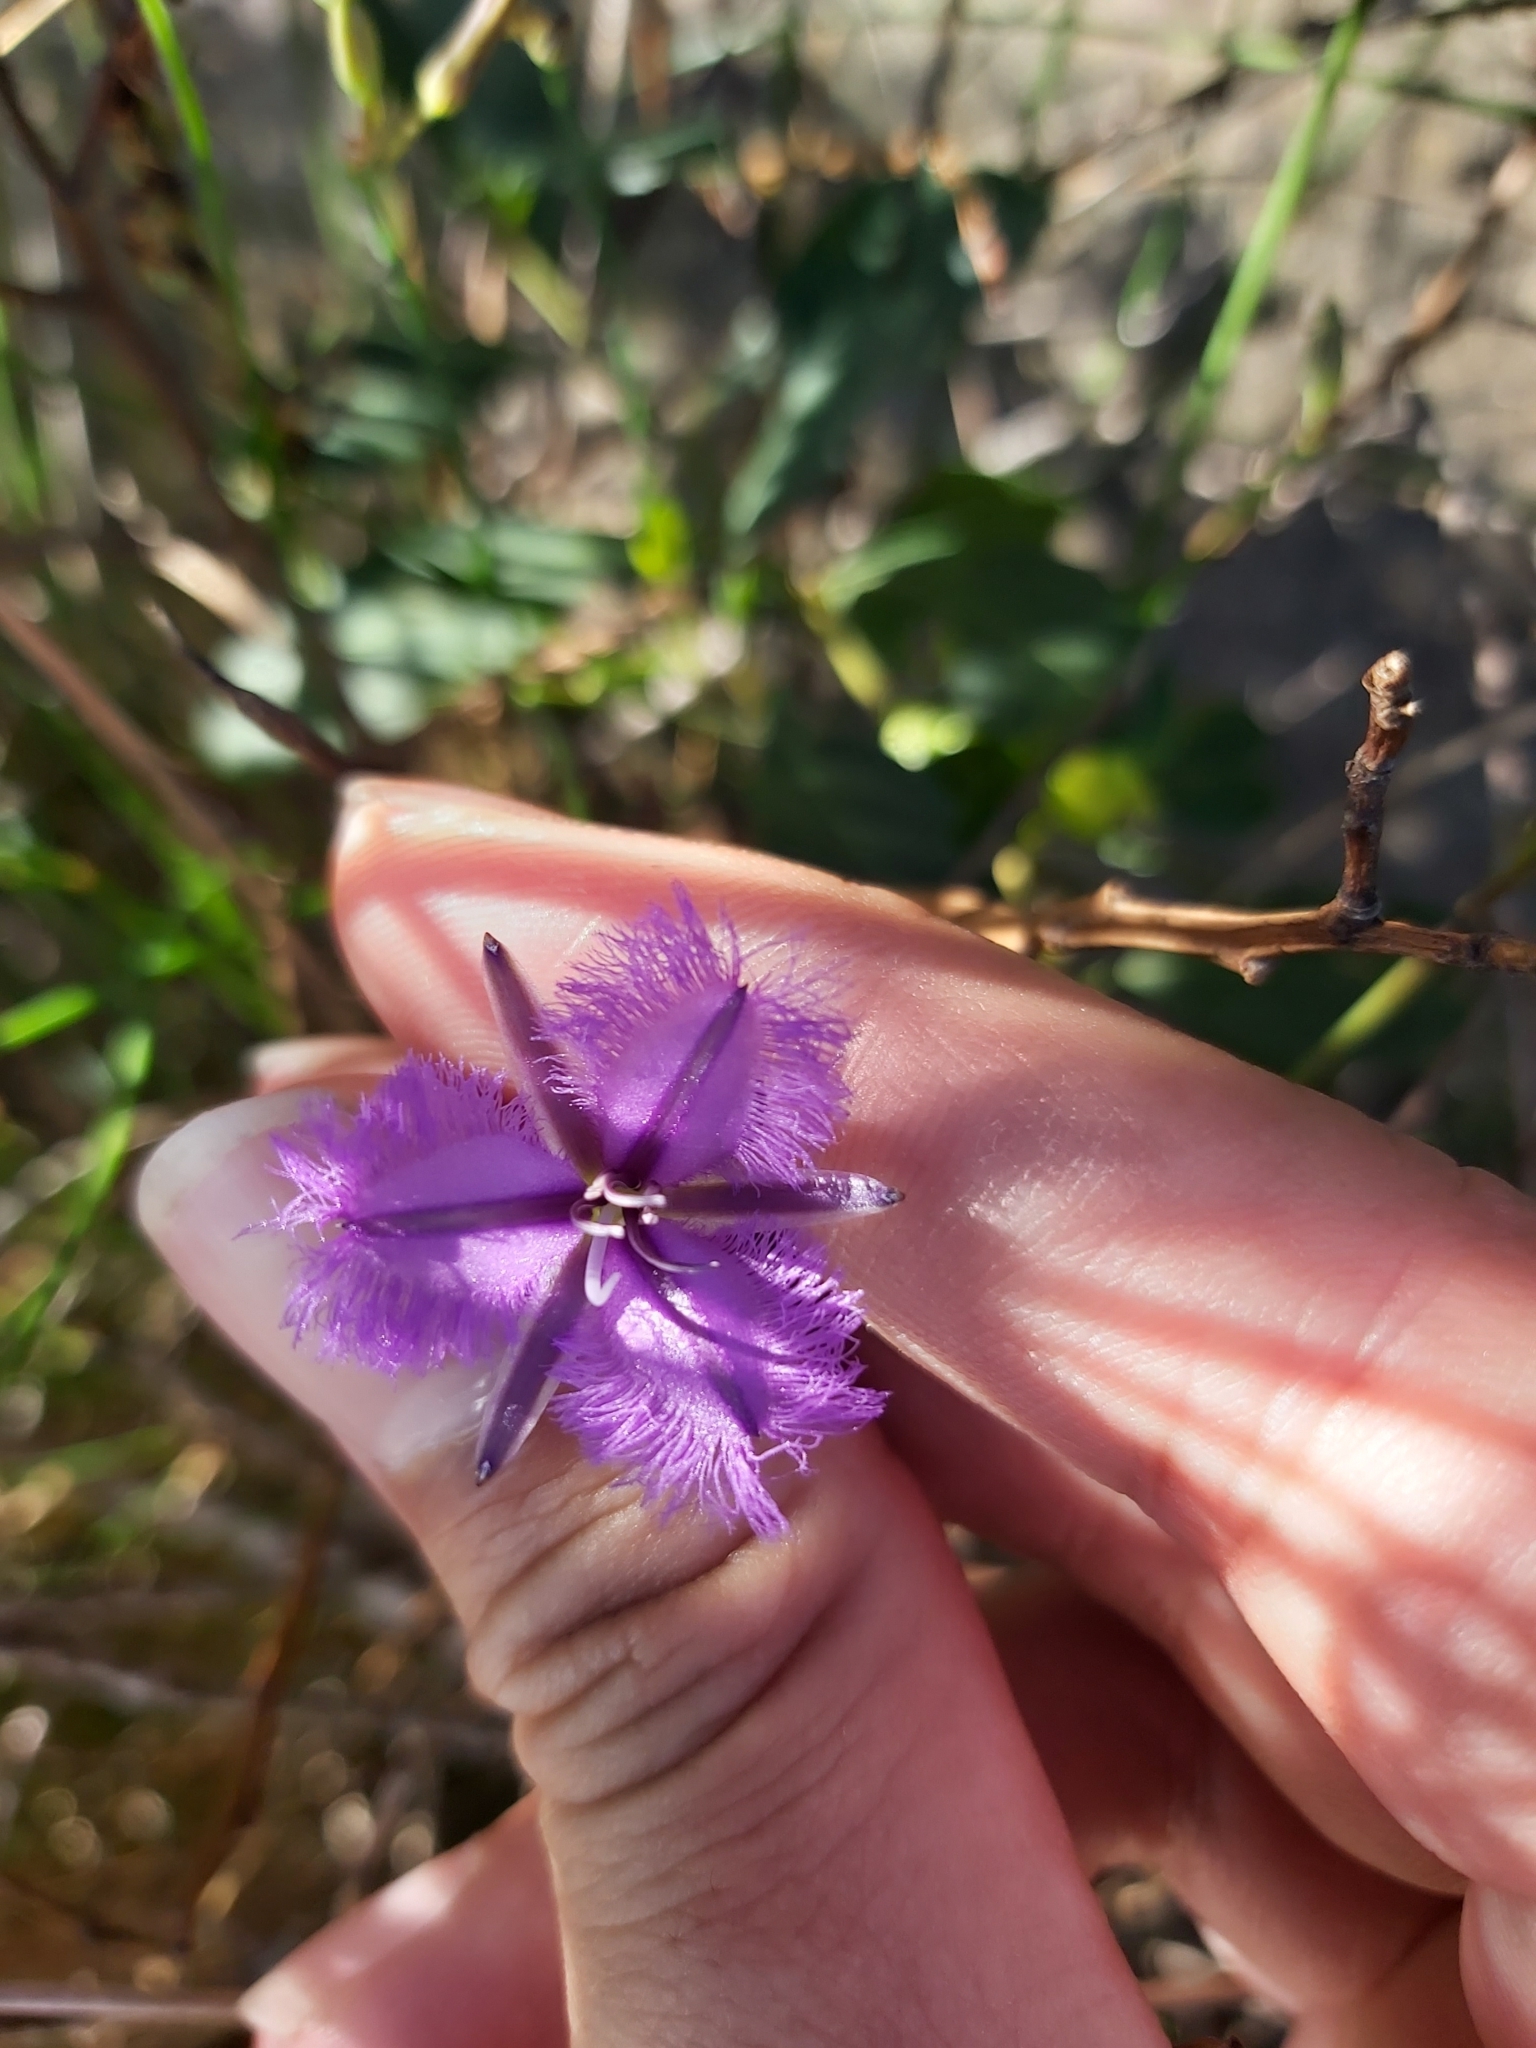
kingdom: Plantae
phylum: Tracheophyta
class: Liliopsida
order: Asparagales
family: Asparagaceae
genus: Thysanotus
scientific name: Thysanotus tuberosus
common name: Common fringed-lily
